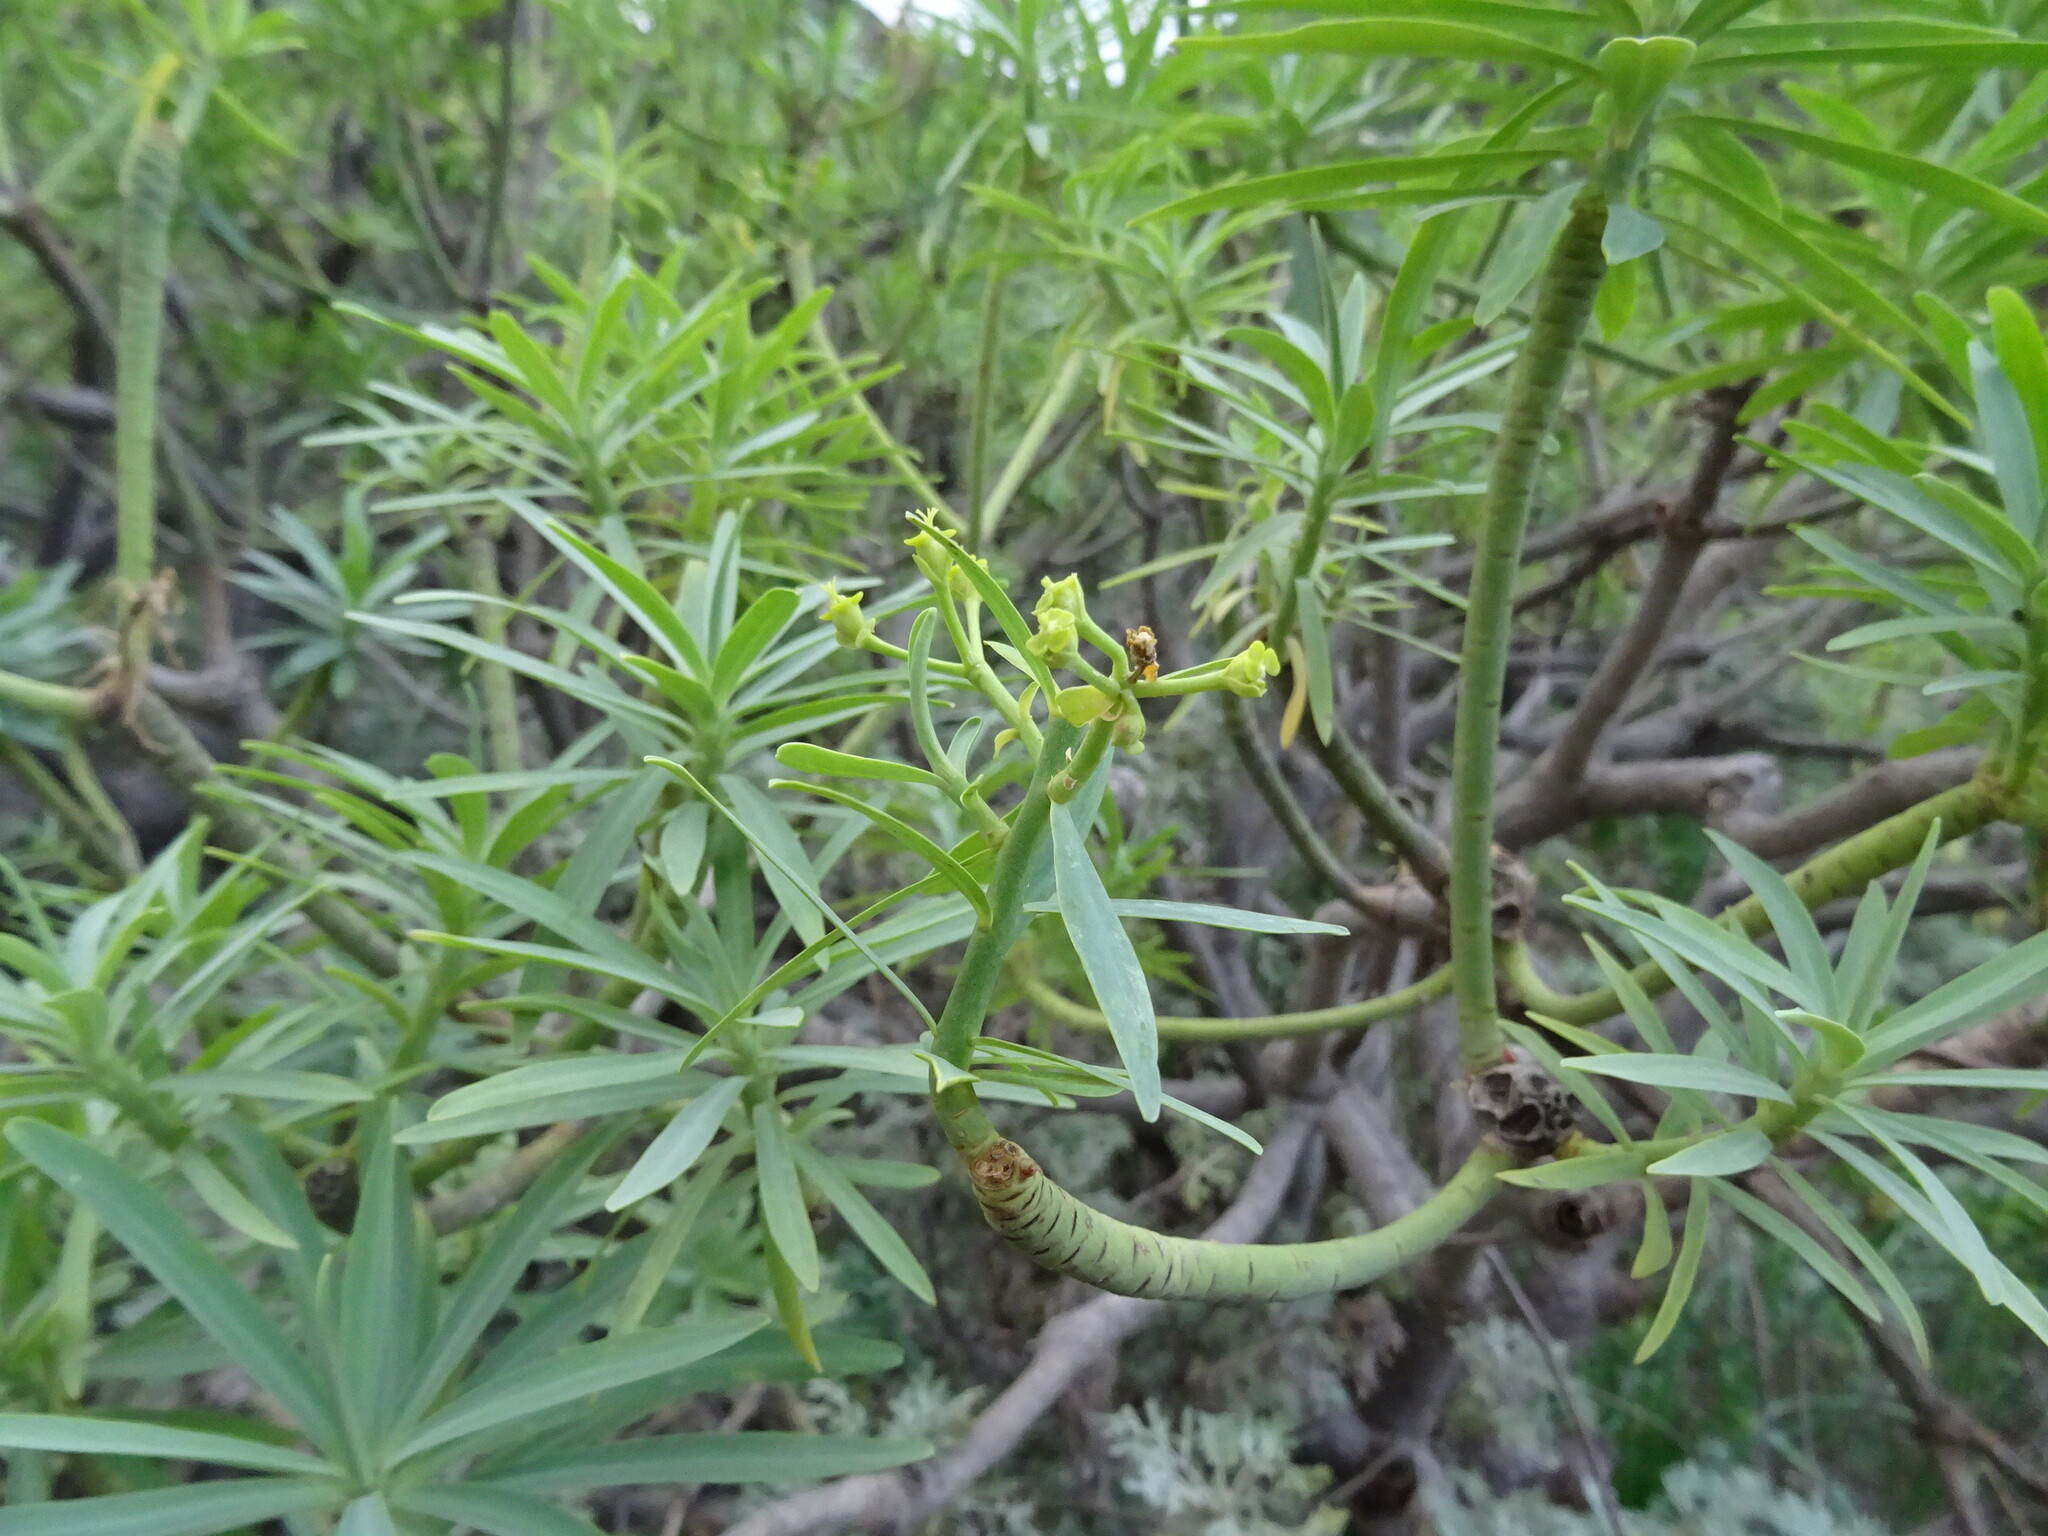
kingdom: Plantae
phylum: Tracheophyta
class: Magnoliopsida
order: Malpighiales
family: Euphorbiaceae
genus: Euphorbia
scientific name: Euphorbia lamarckii
